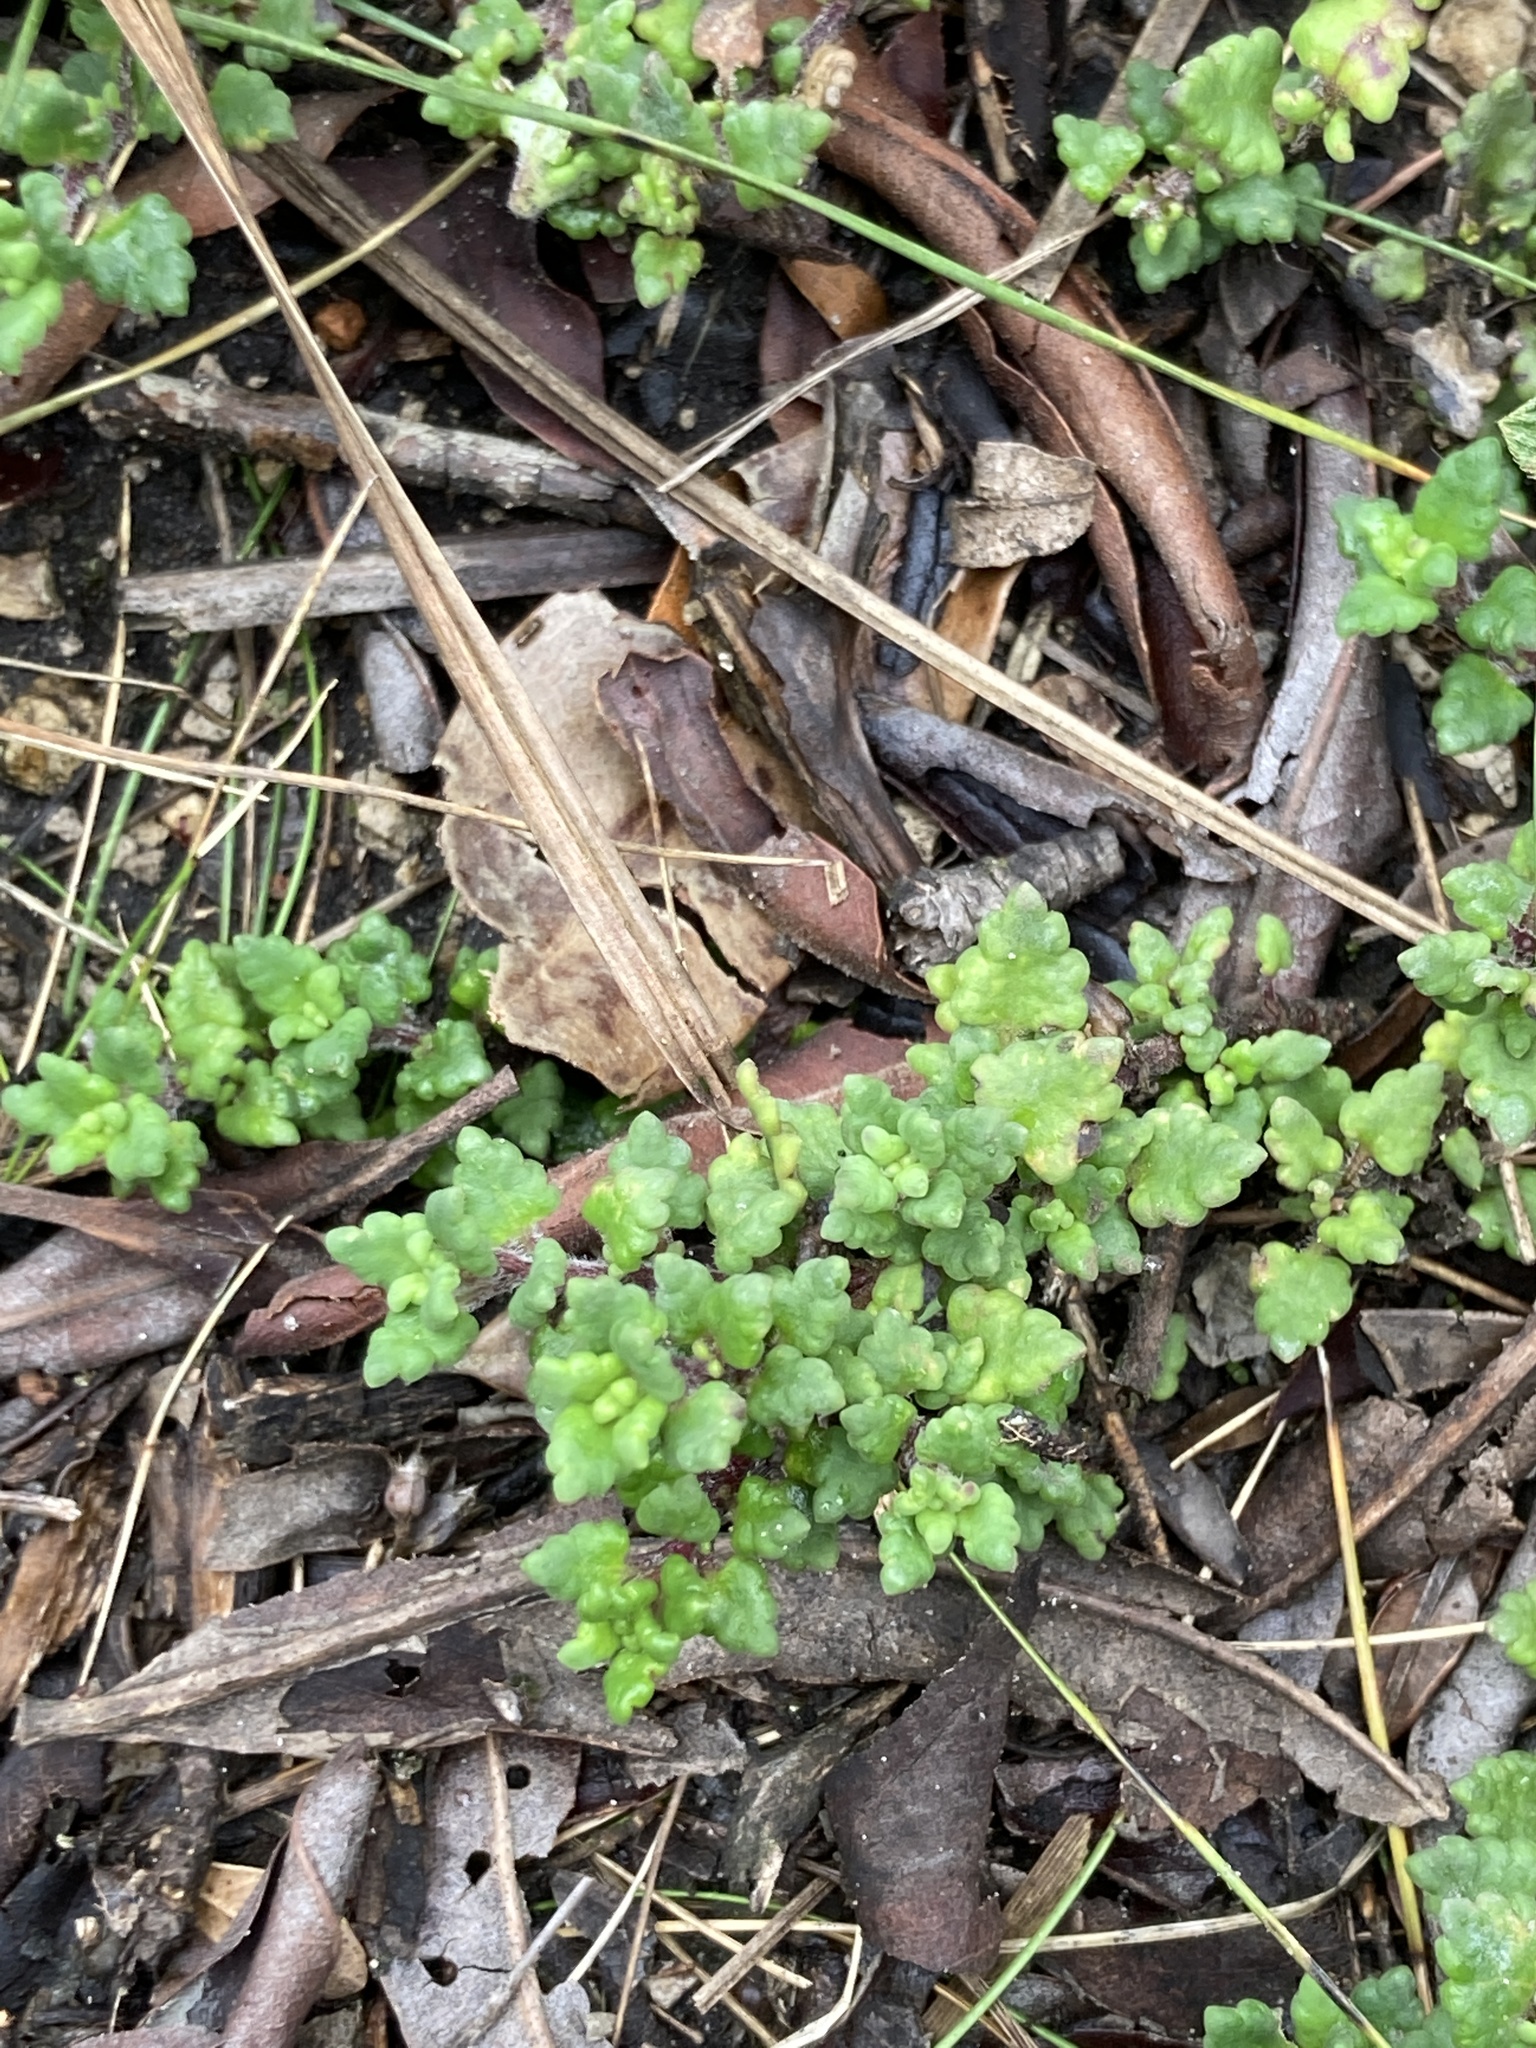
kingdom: Plantae
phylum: Tracheophyta
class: Magnoliopsida
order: Asterales
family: Asteraceae
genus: Lourteigia
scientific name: Lourteigia microphylla
